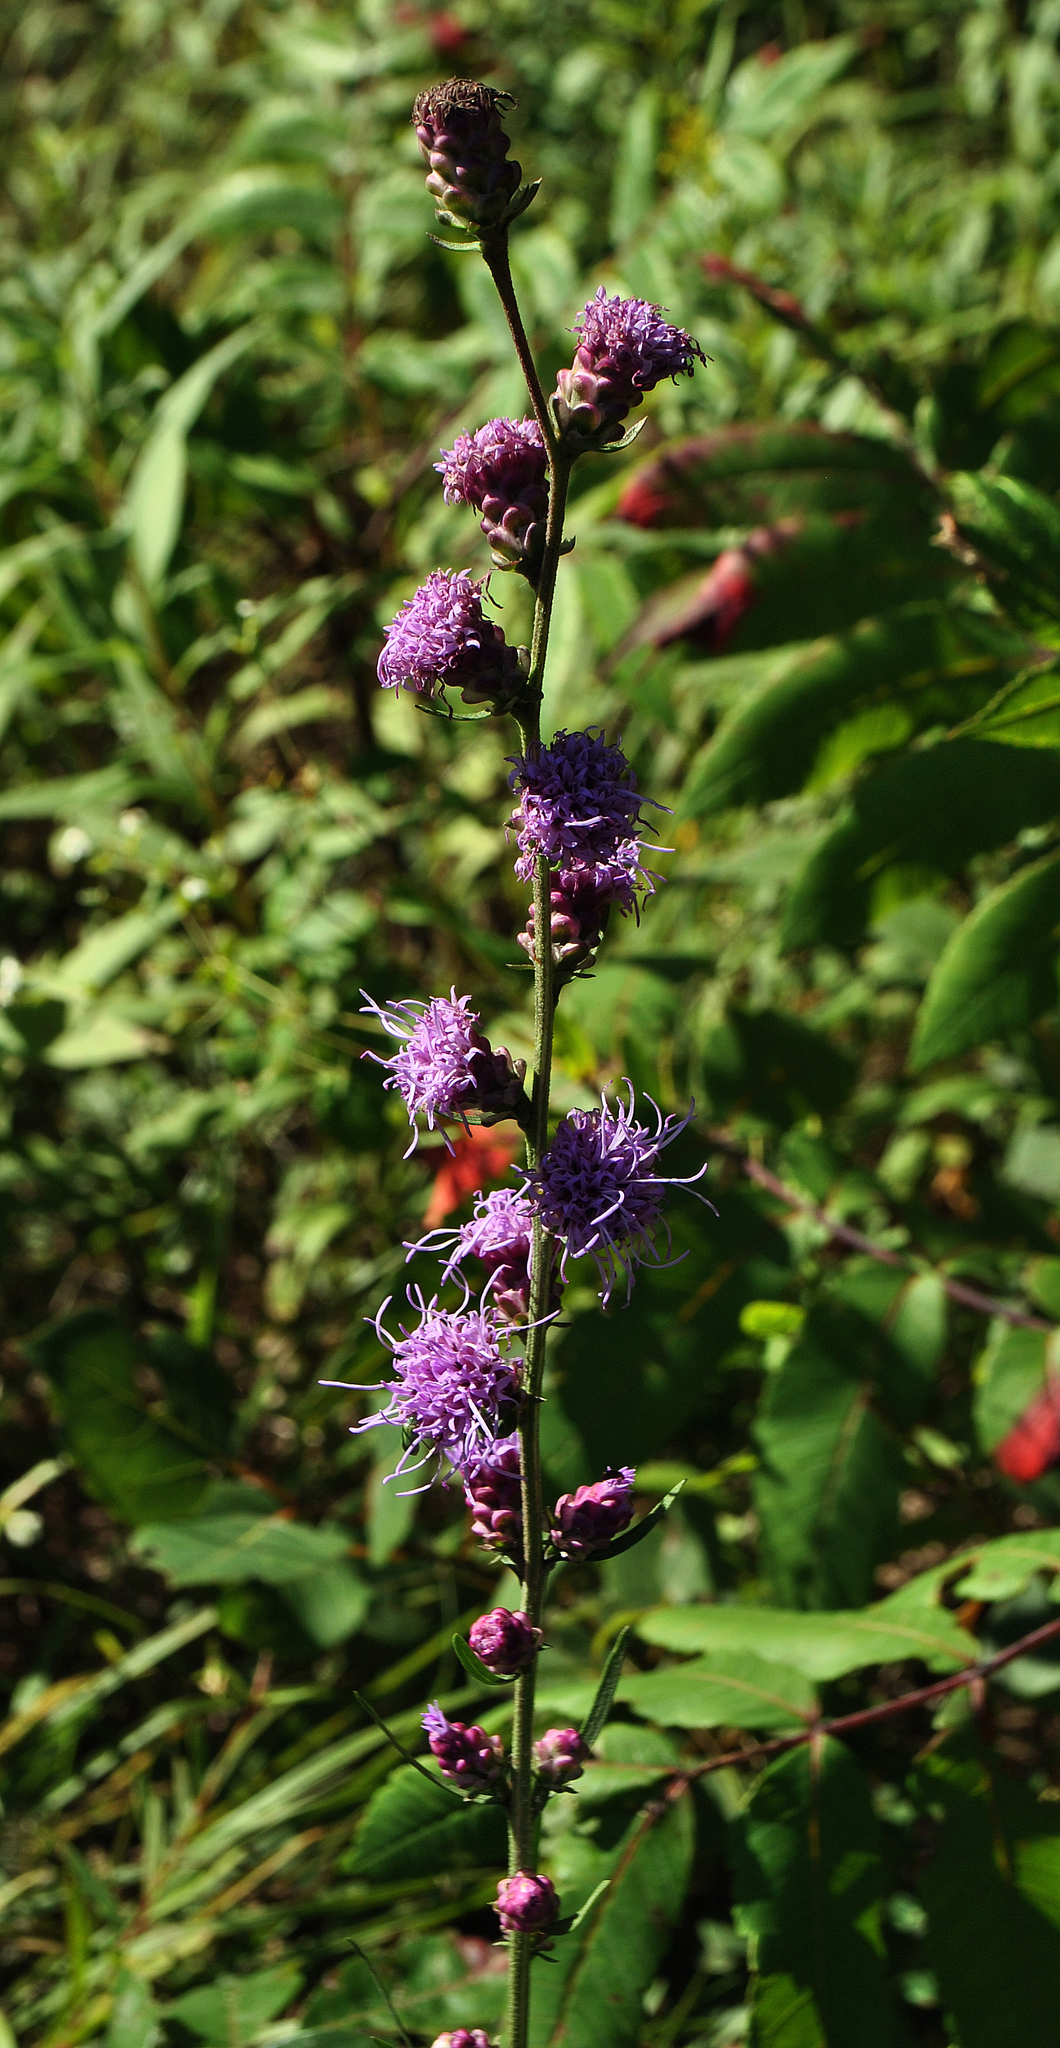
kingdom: Plantae
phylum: Tracheophyta
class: Magnoliopsida
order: Asterales
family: Asteraceae
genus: Liatris
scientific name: Liatris aspera
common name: Lacerate blazing-star
